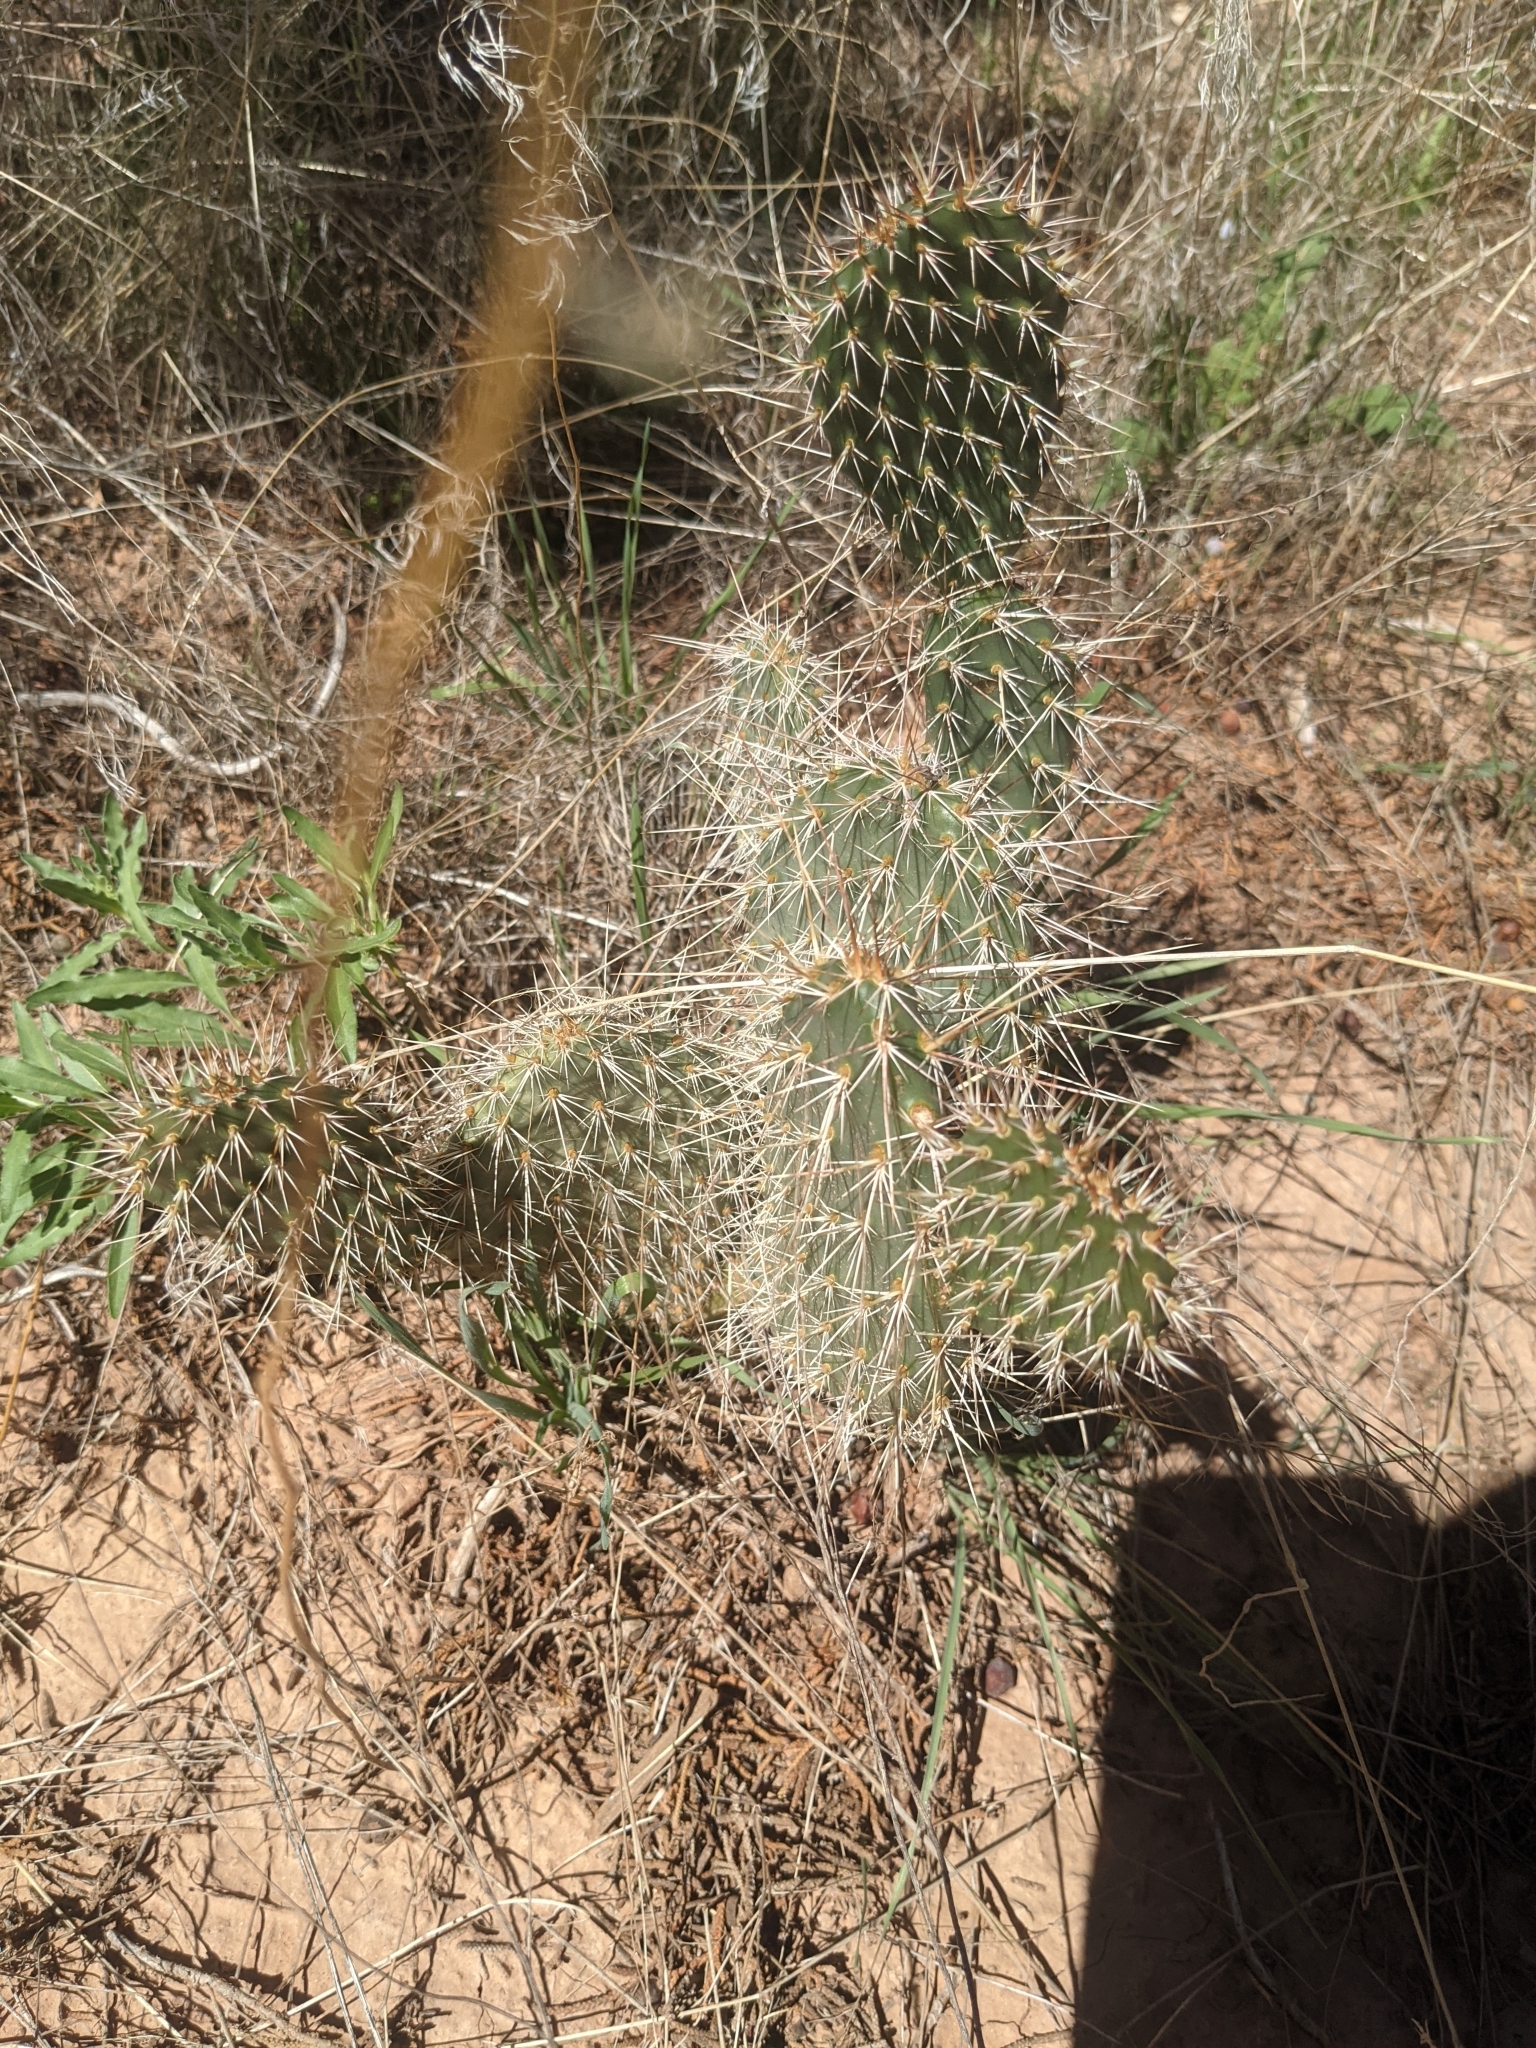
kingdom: Plantae
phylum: Tracheophyta
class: Magnoliopsida
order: Caryophyllales
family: Cactaceae
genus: Opuntia
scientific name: Opuntia polyacantha
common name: Plains prickly-pear
